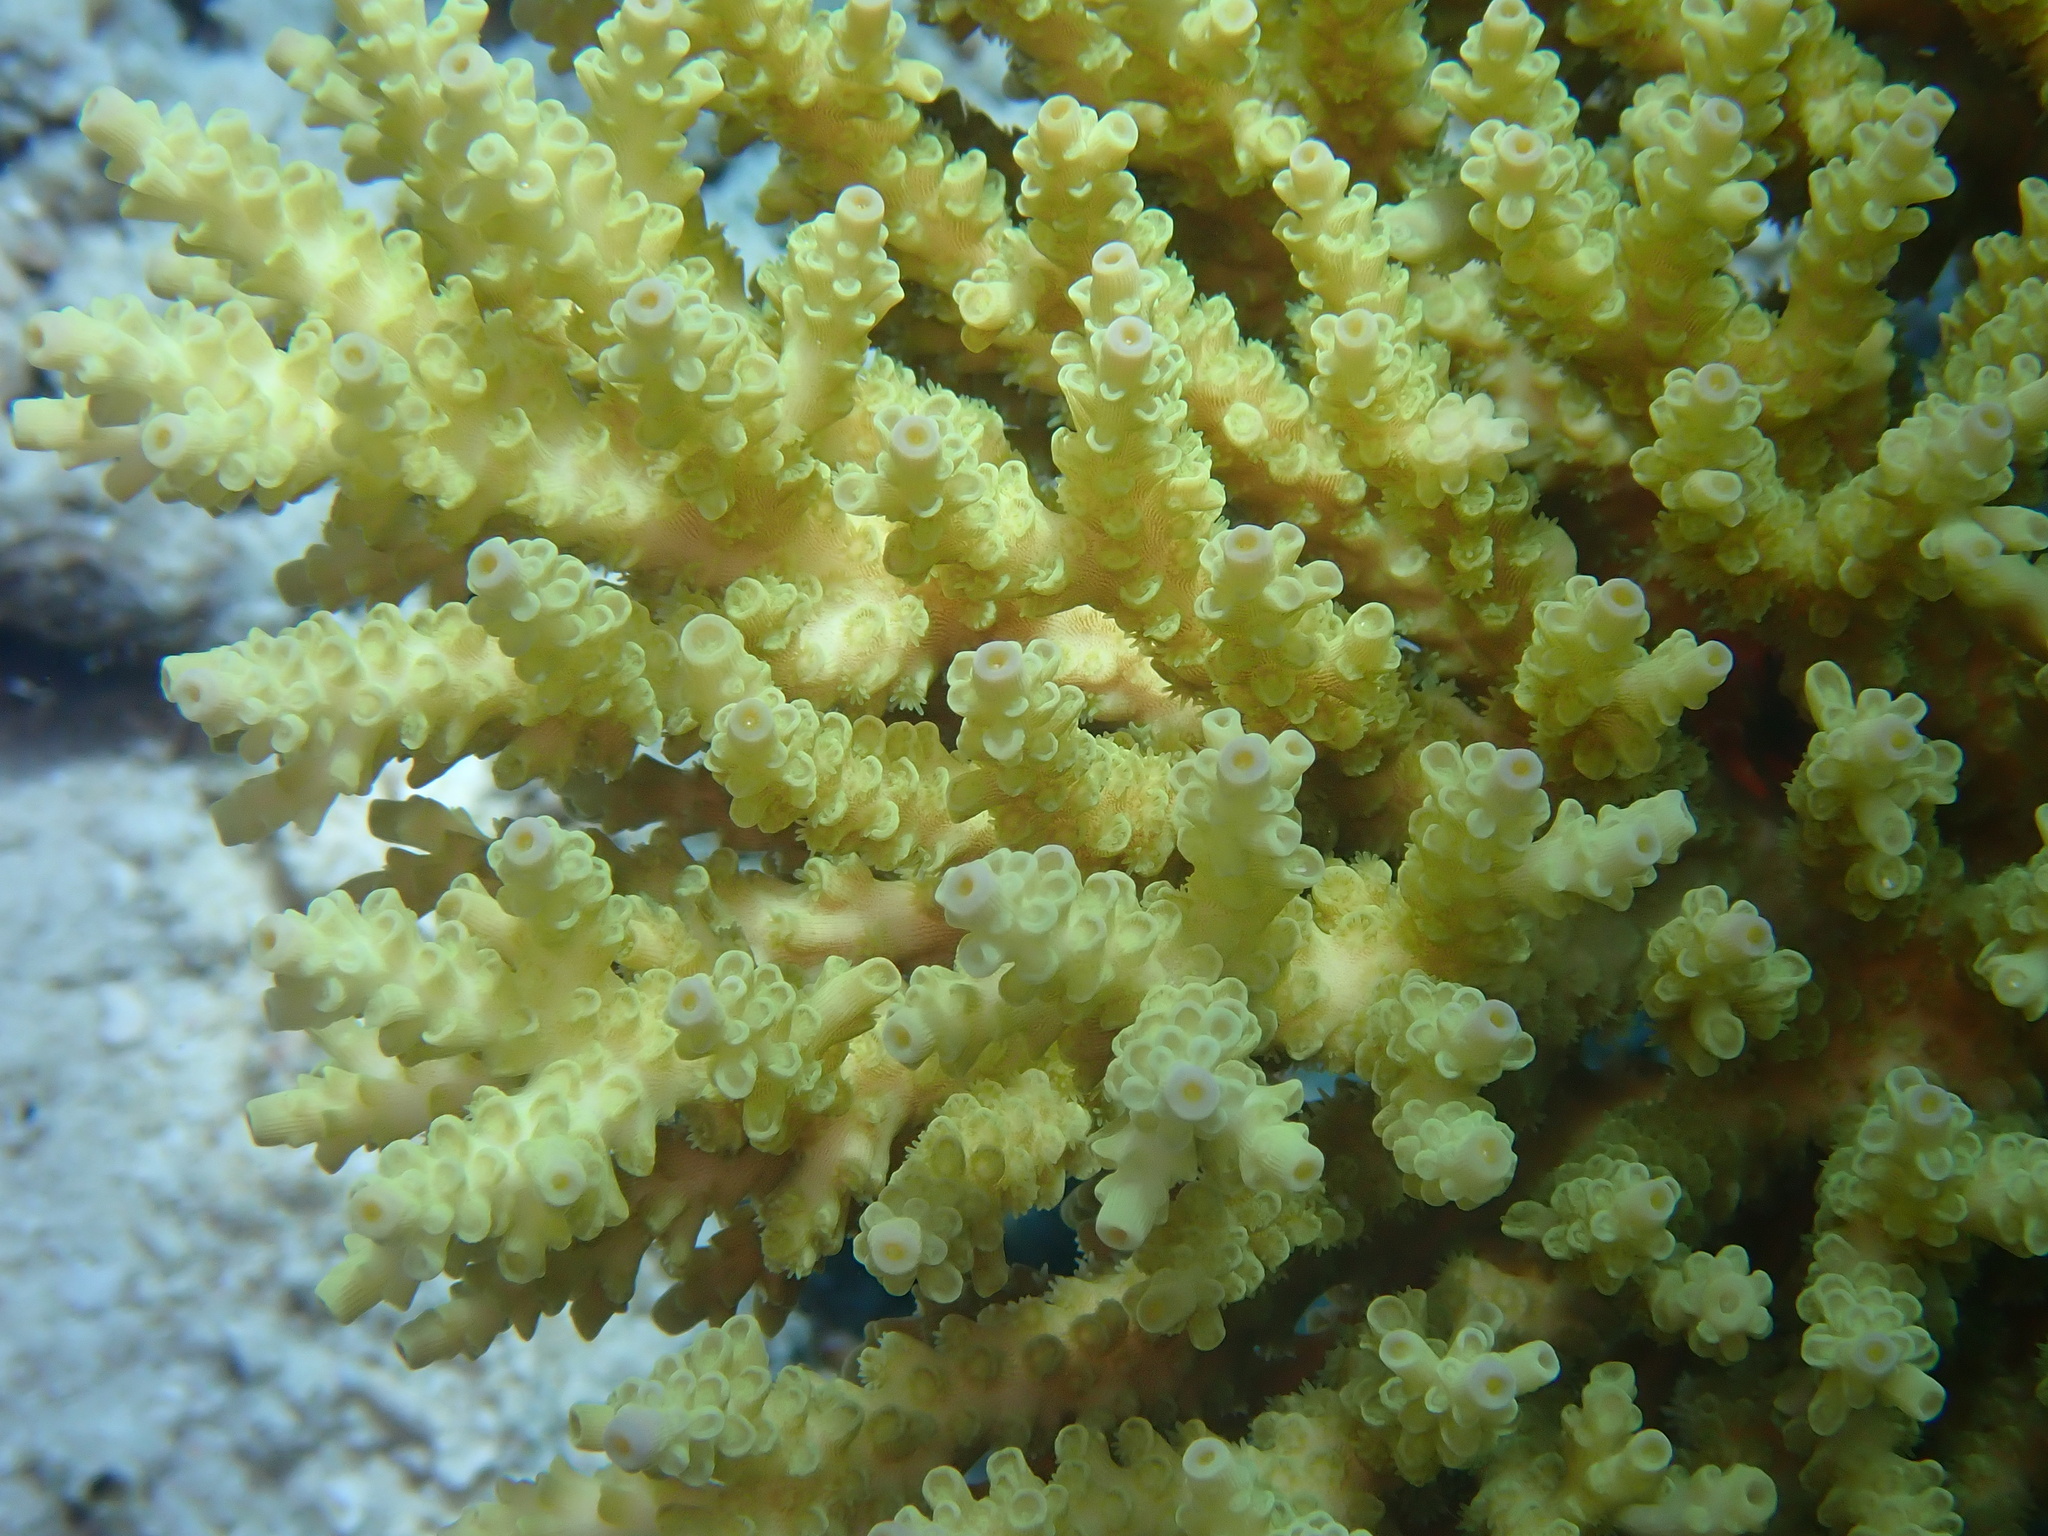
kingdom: Animalia
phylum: Cnidaria
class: Anthozoa
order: Scleractinia
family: Acroporidae
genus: Acropora
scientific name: Acropora tenuis
